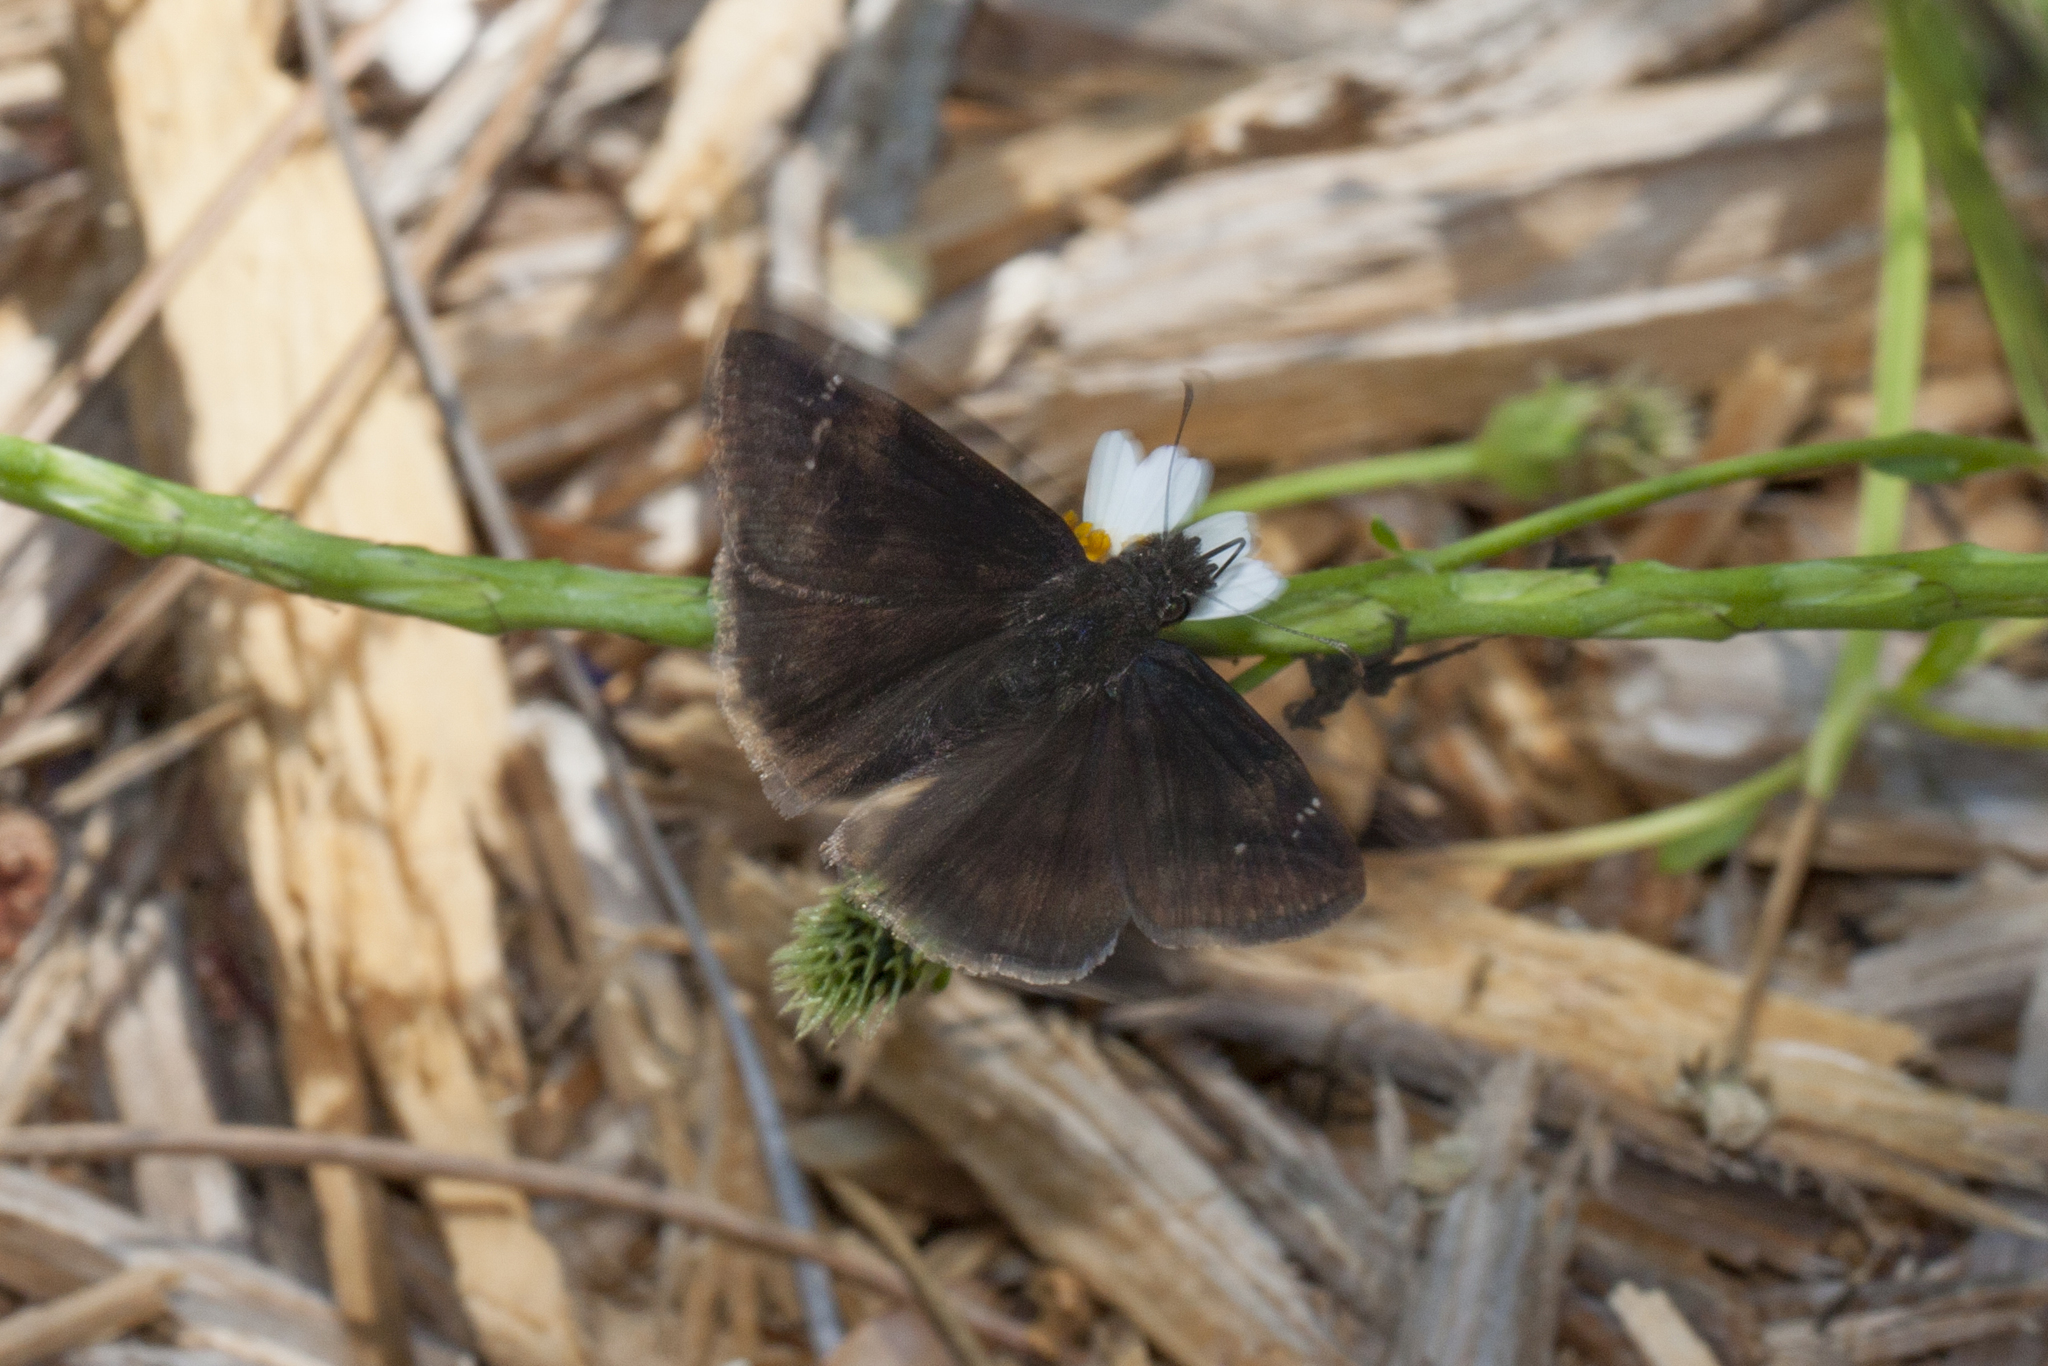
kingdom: Animalia
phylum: Arthropoda
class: Insecta
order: Lepidoptera
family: Hesperiidae
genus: Erynnis
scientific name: Erynnis zarucco
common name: Zarucco duskywing
